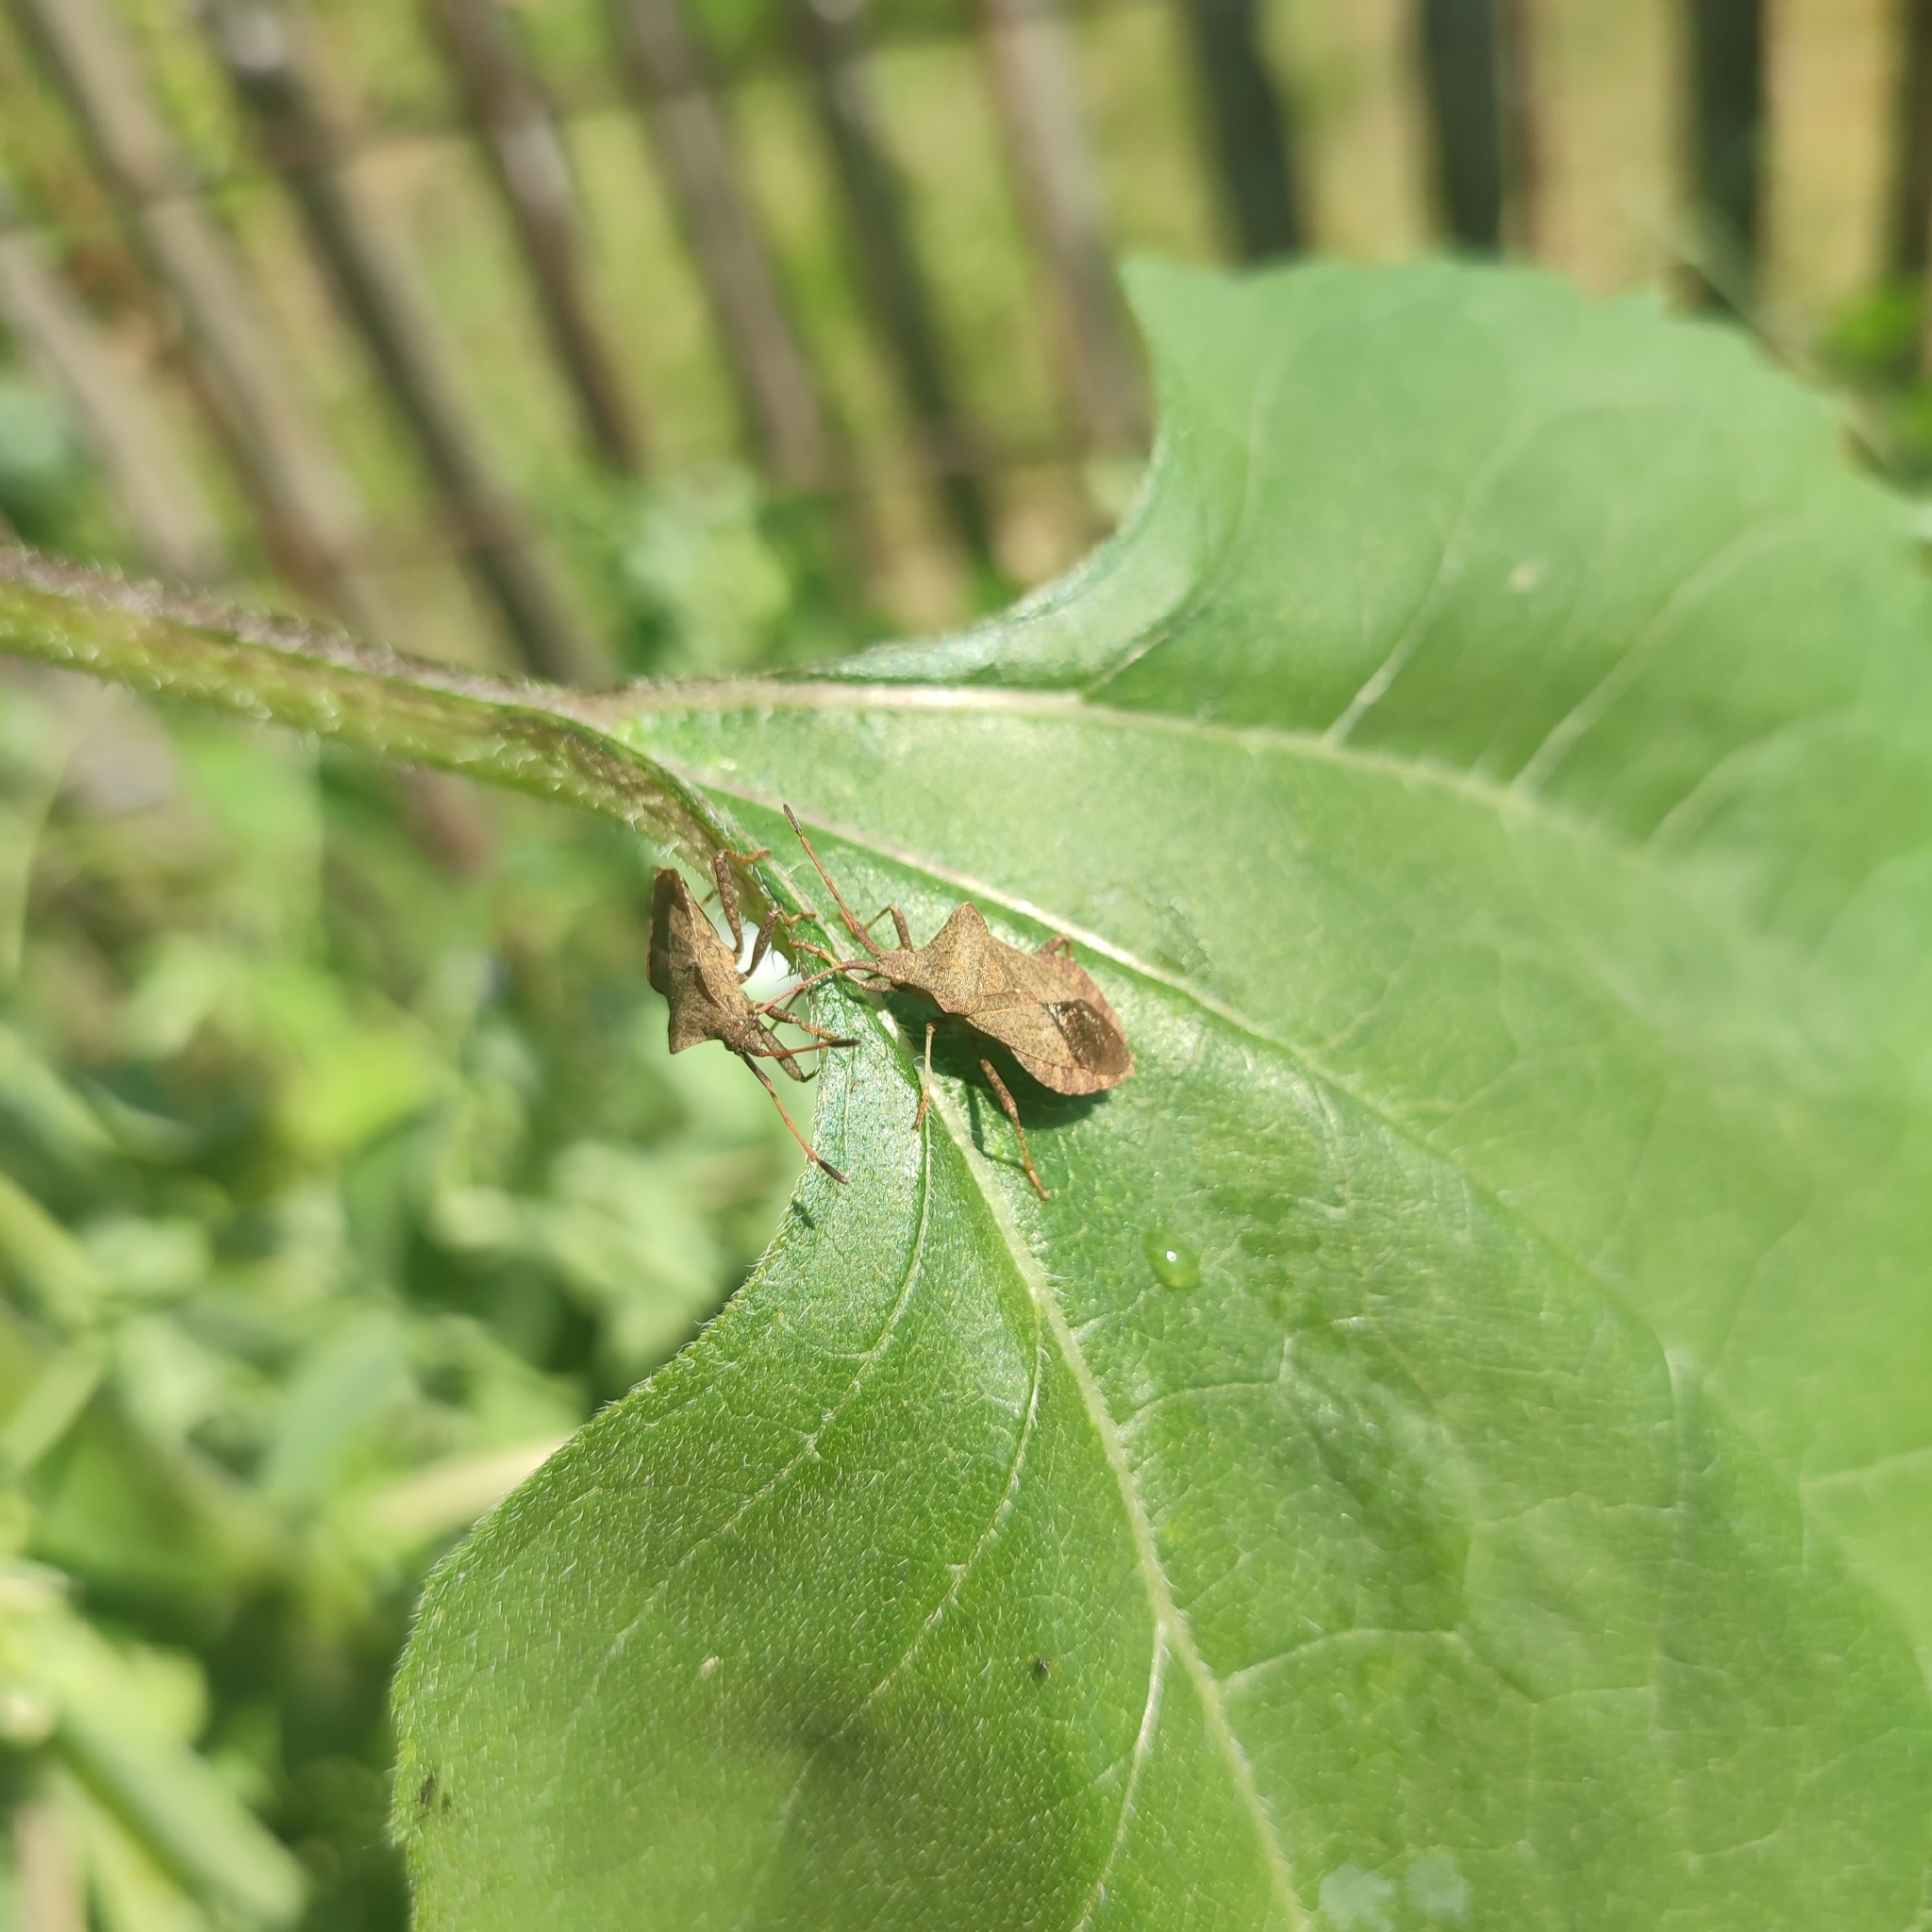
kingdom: Animalia
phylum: Arthropoda
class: Insecta
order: Hemiptera
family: Coreidae
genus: Coreus
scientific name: Coreus marginatus
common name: Dock bug
